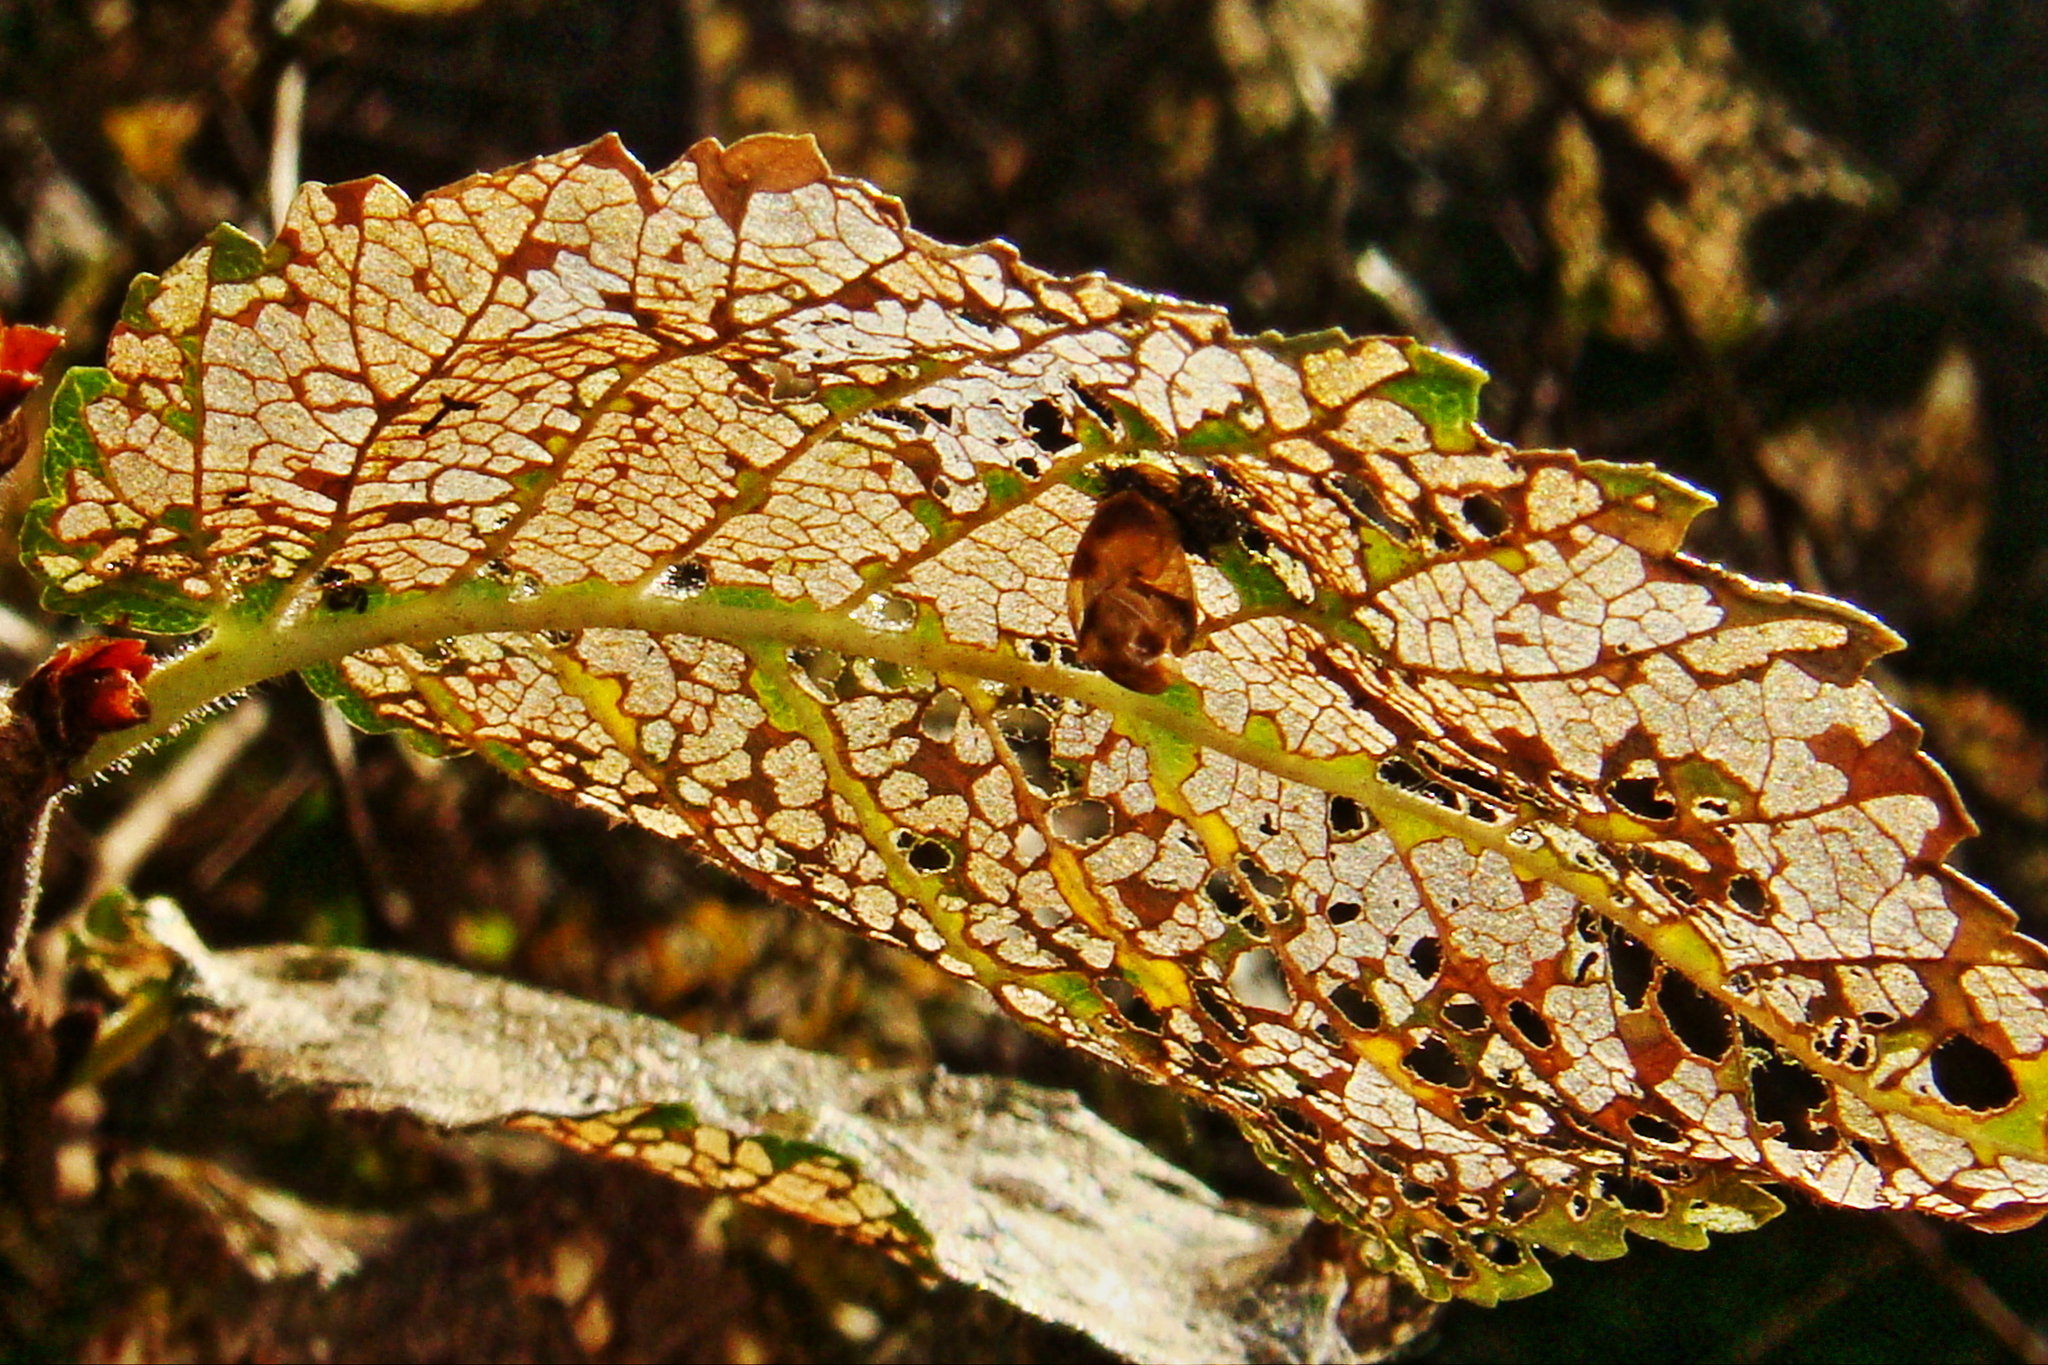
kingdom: Animalia
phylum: Arthropoda
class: Insecta
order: Coleoptera
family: Coccinellidae
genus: Harmonia
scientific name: Harmonia axyridis
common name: Harlequin ladybird
